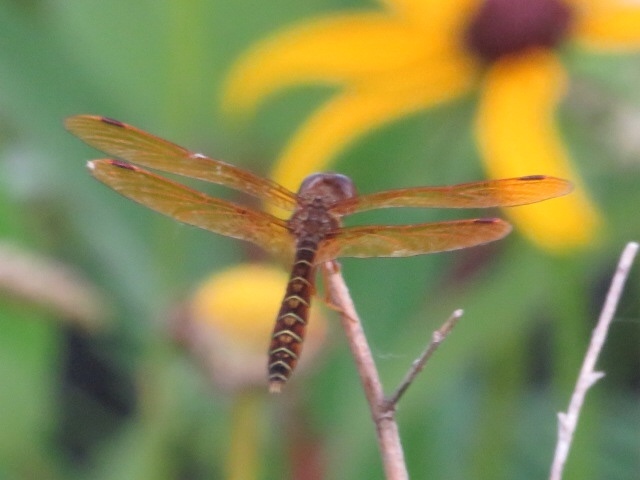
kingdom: Animalia
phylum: Arthropoda
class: Insecta
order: Odonata
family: Libellulidae
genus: Perithemis
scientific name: Perithemis tenera
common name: Eastern amberwing
